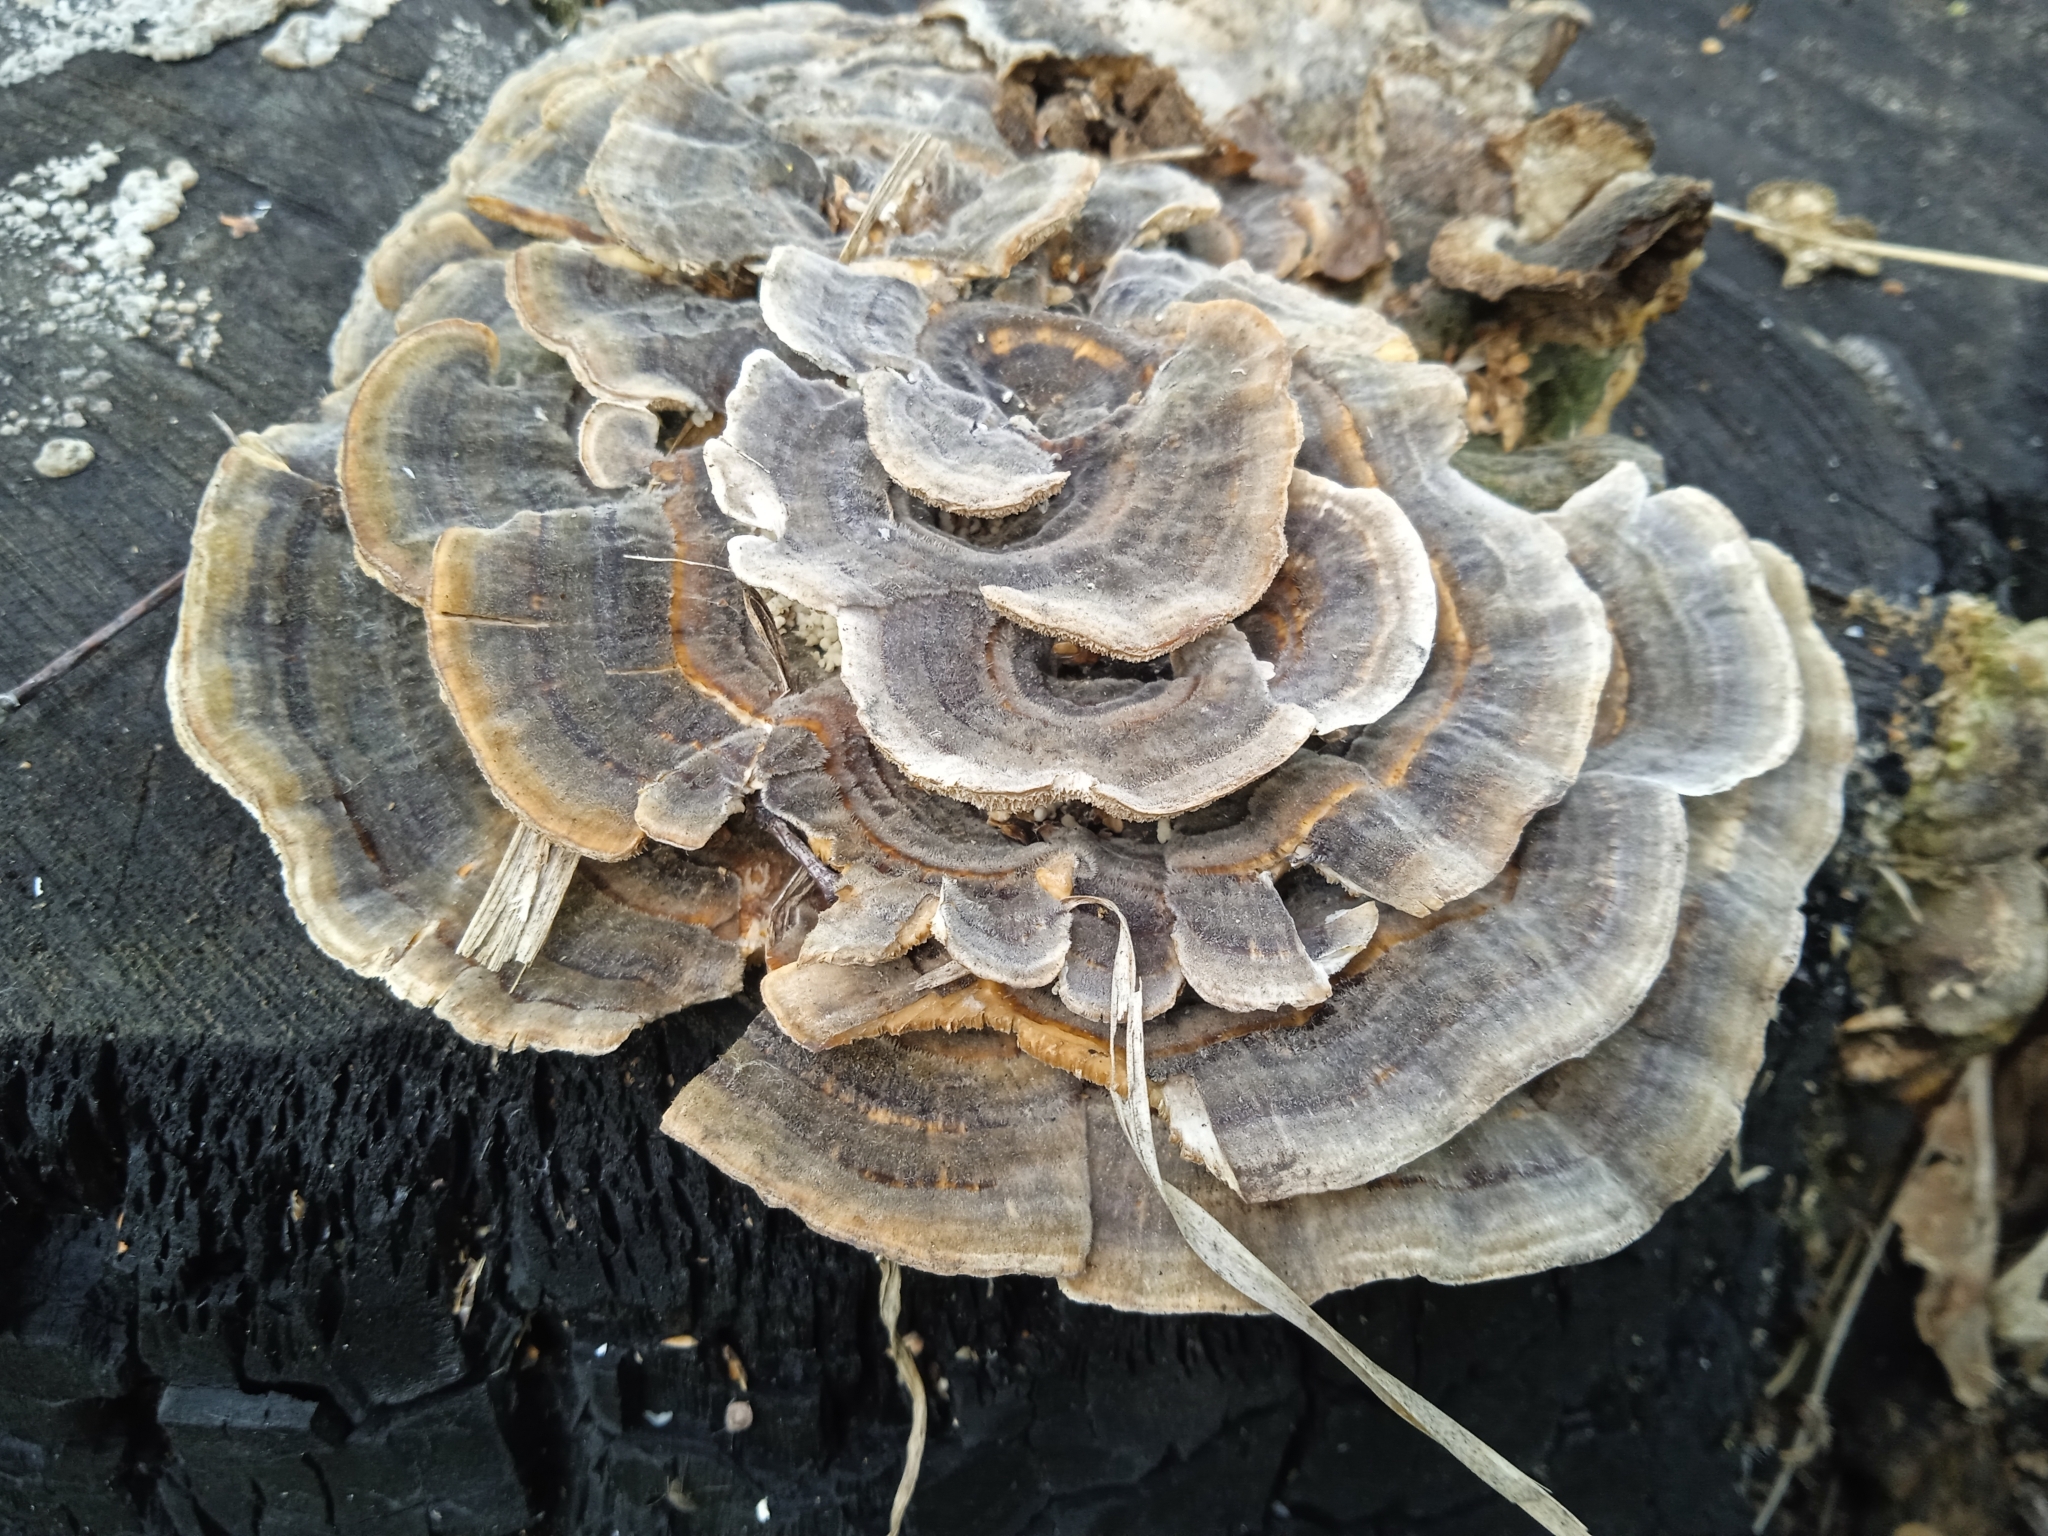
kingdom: Fungi
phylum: Basidiomycota
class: Agaricomycetes
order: Polyporales
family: Polyporaceae
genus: Trametes
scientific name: Trametes versicolor
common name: Turkeytail
